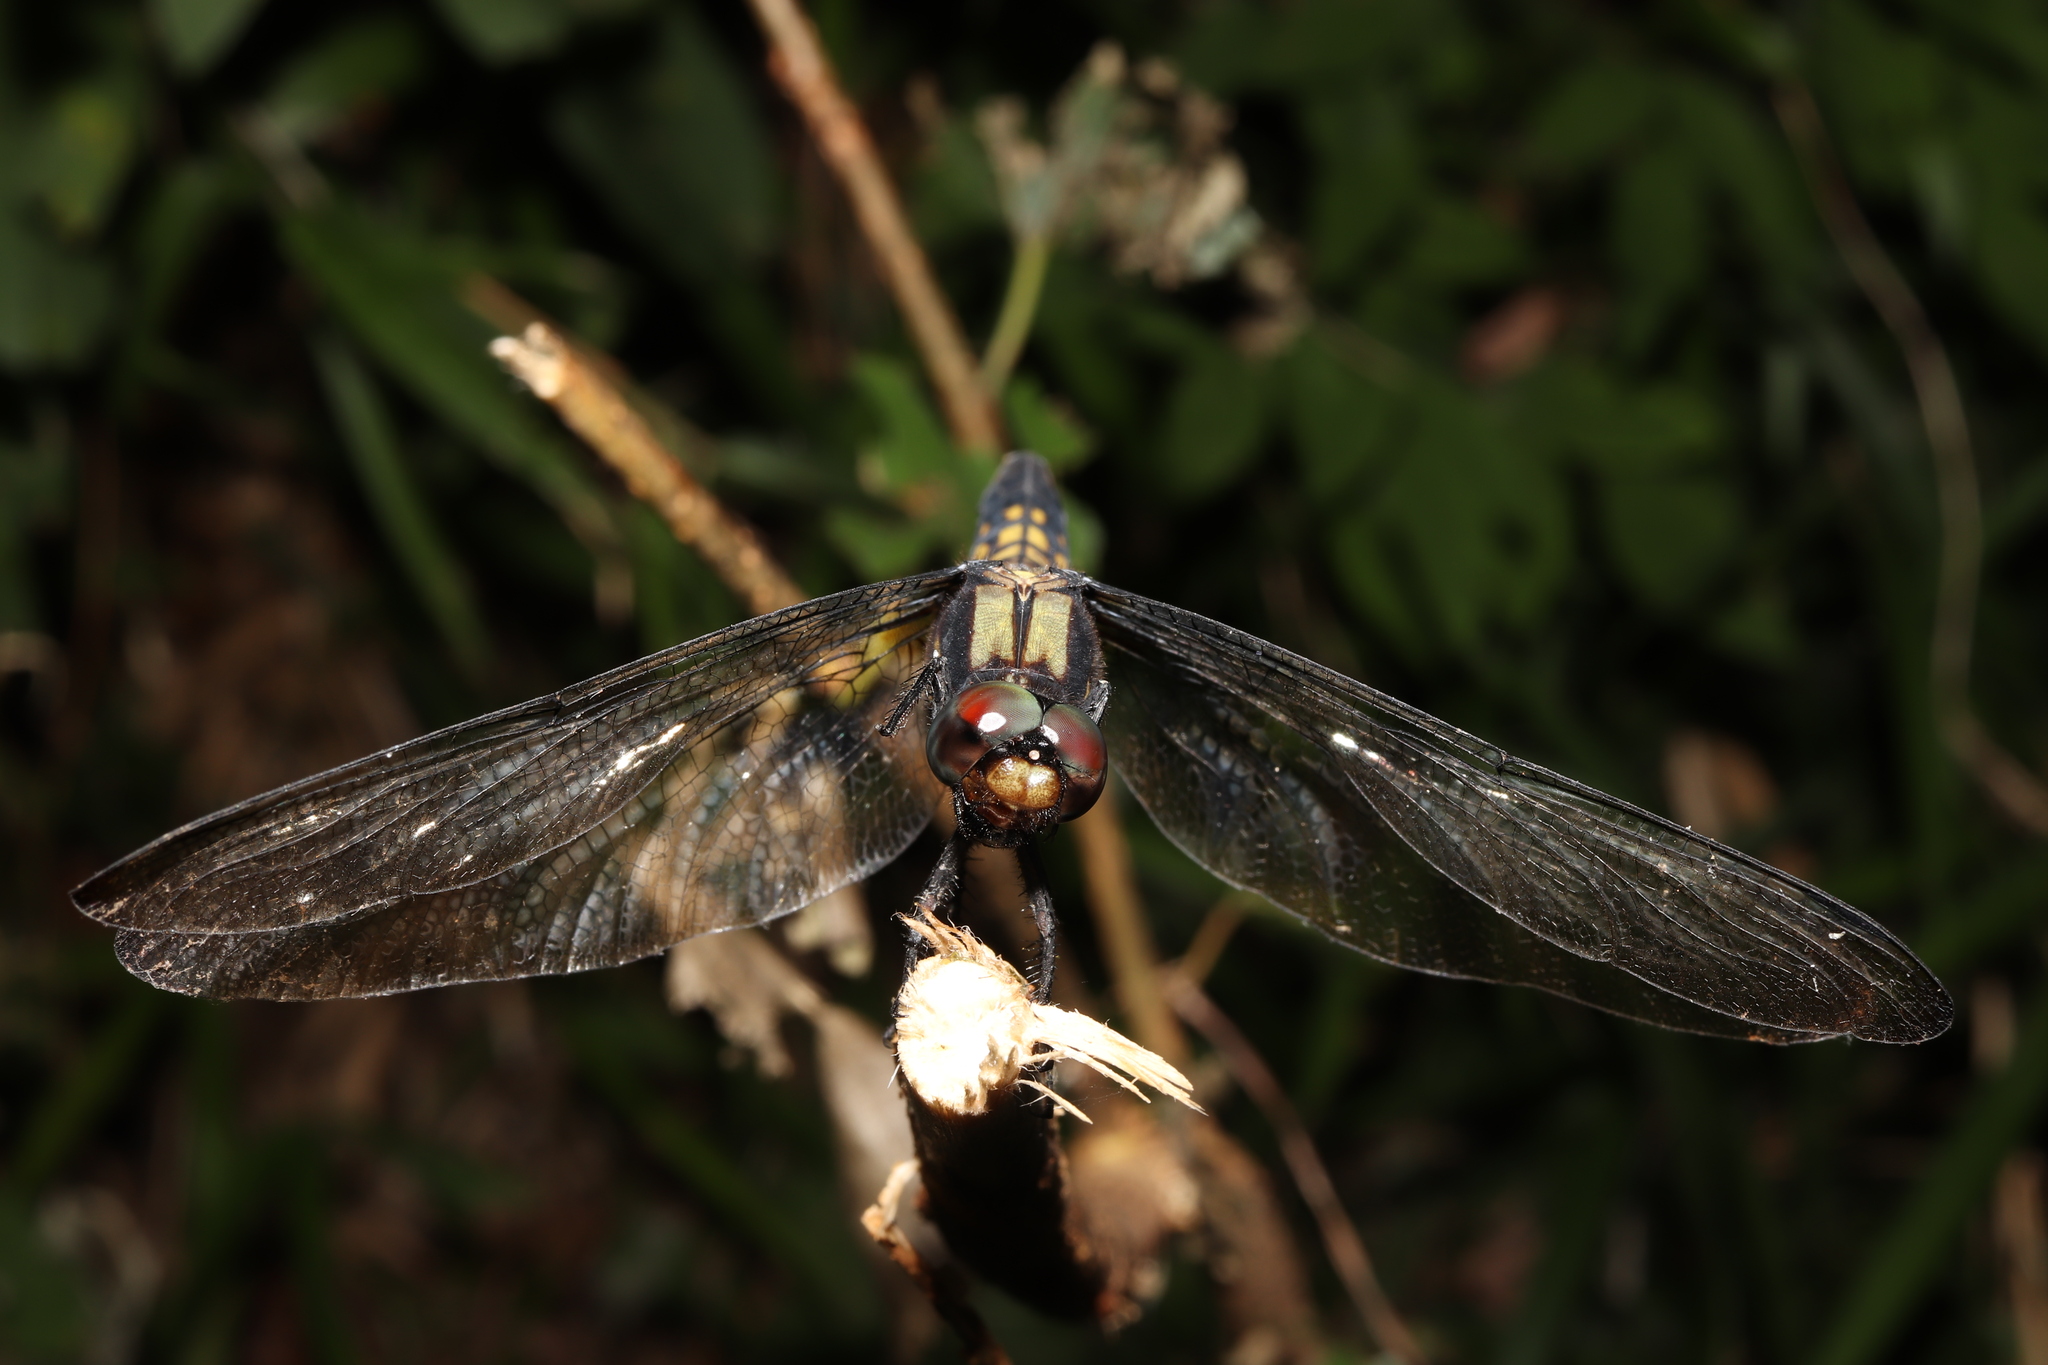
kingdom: Animalia
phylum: Arthropoda
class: Insecta
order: Odonata
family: Libellulidae
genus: Orthetrum
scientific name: Orthetrum melania
